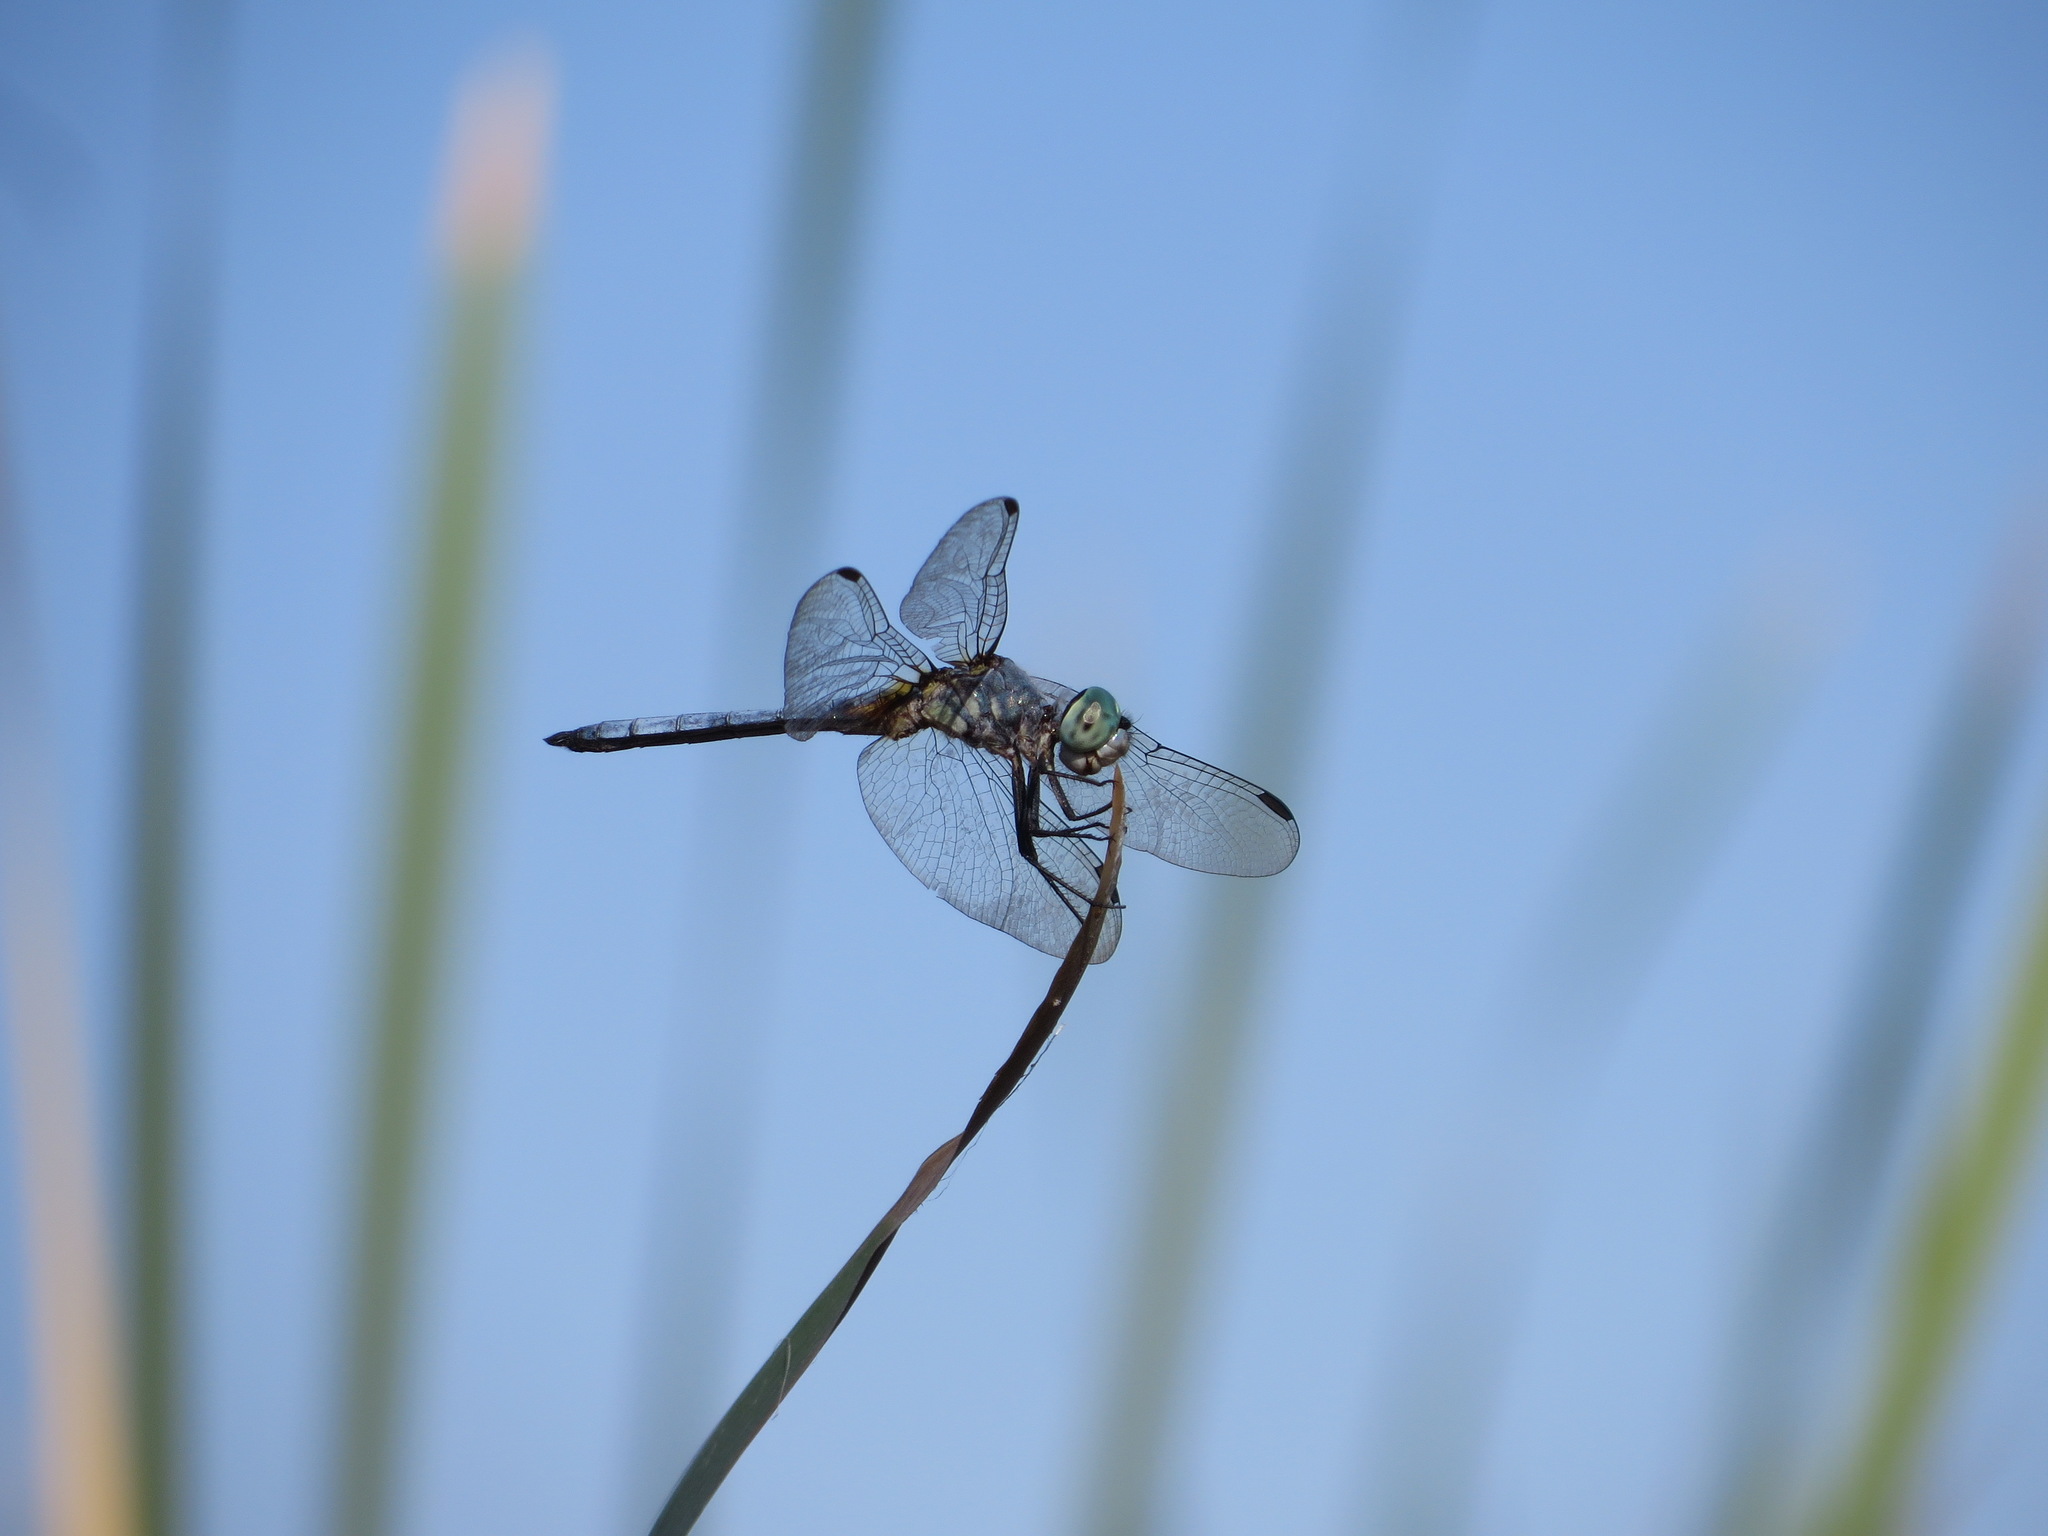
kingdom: Animalia
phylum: Arthropoda
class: Insecta
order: Odonata
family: Libellulidae
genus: Pachydiplax
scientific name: Pachydiplax longipennis
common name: Blue dasher
